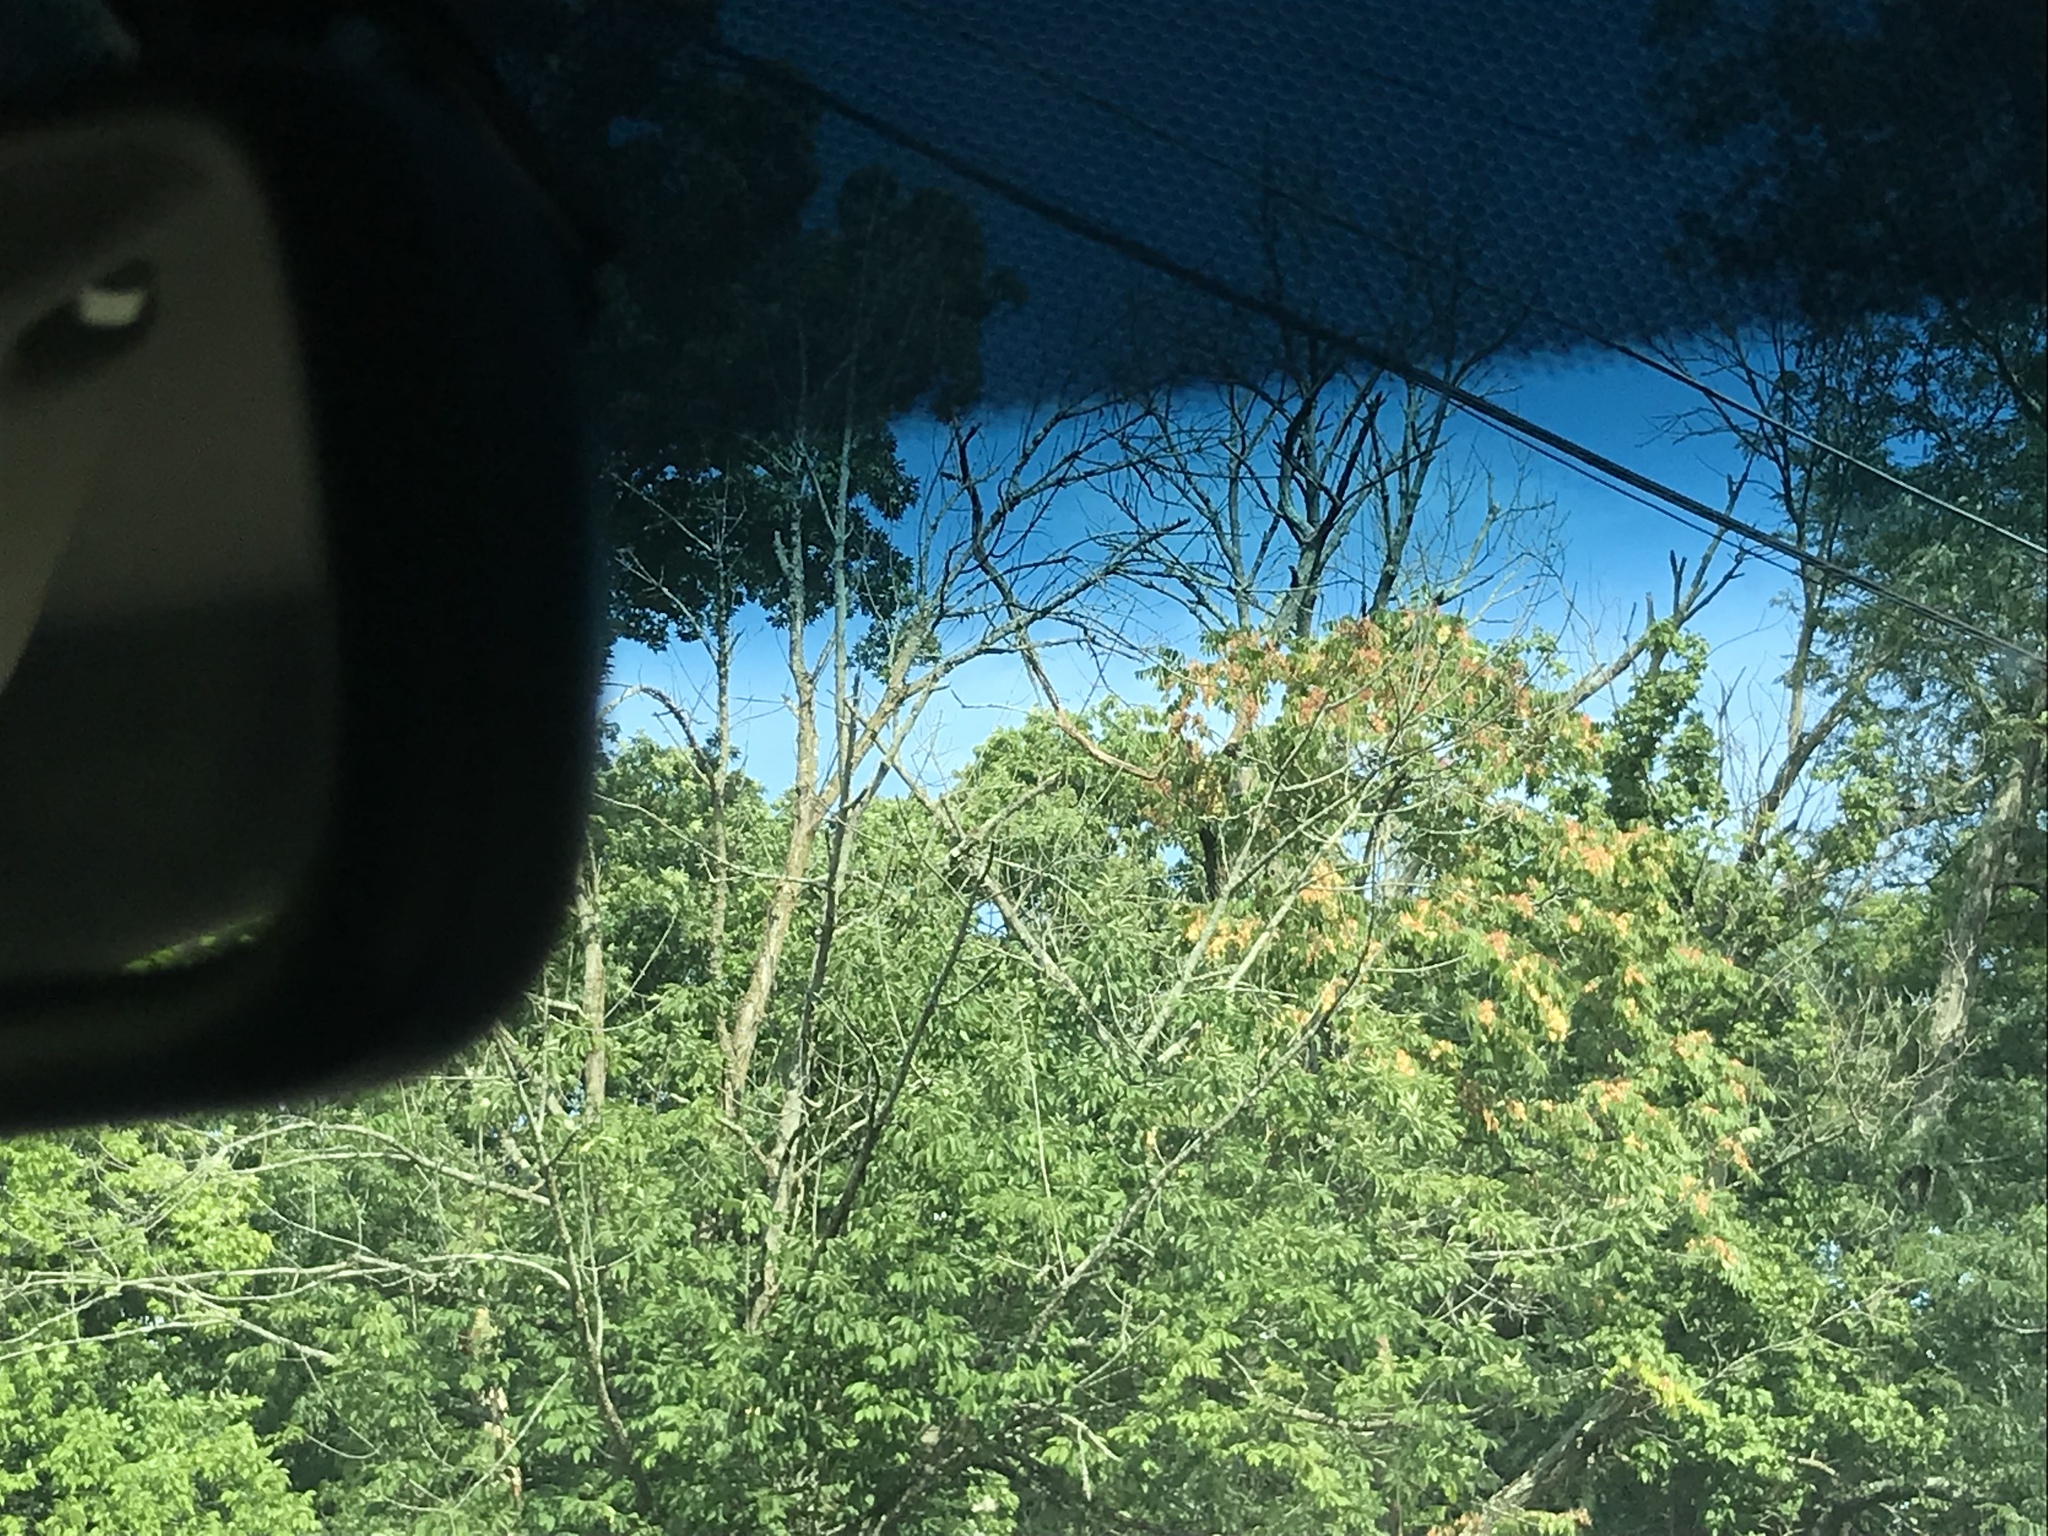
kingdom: Plantae
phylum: Tracheophyta
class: Magnoliopsida
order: Sapindales
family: Simaroubaceae
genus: Ailanthus
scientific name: Ailanthus altissima
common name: Tree-of-heaven
